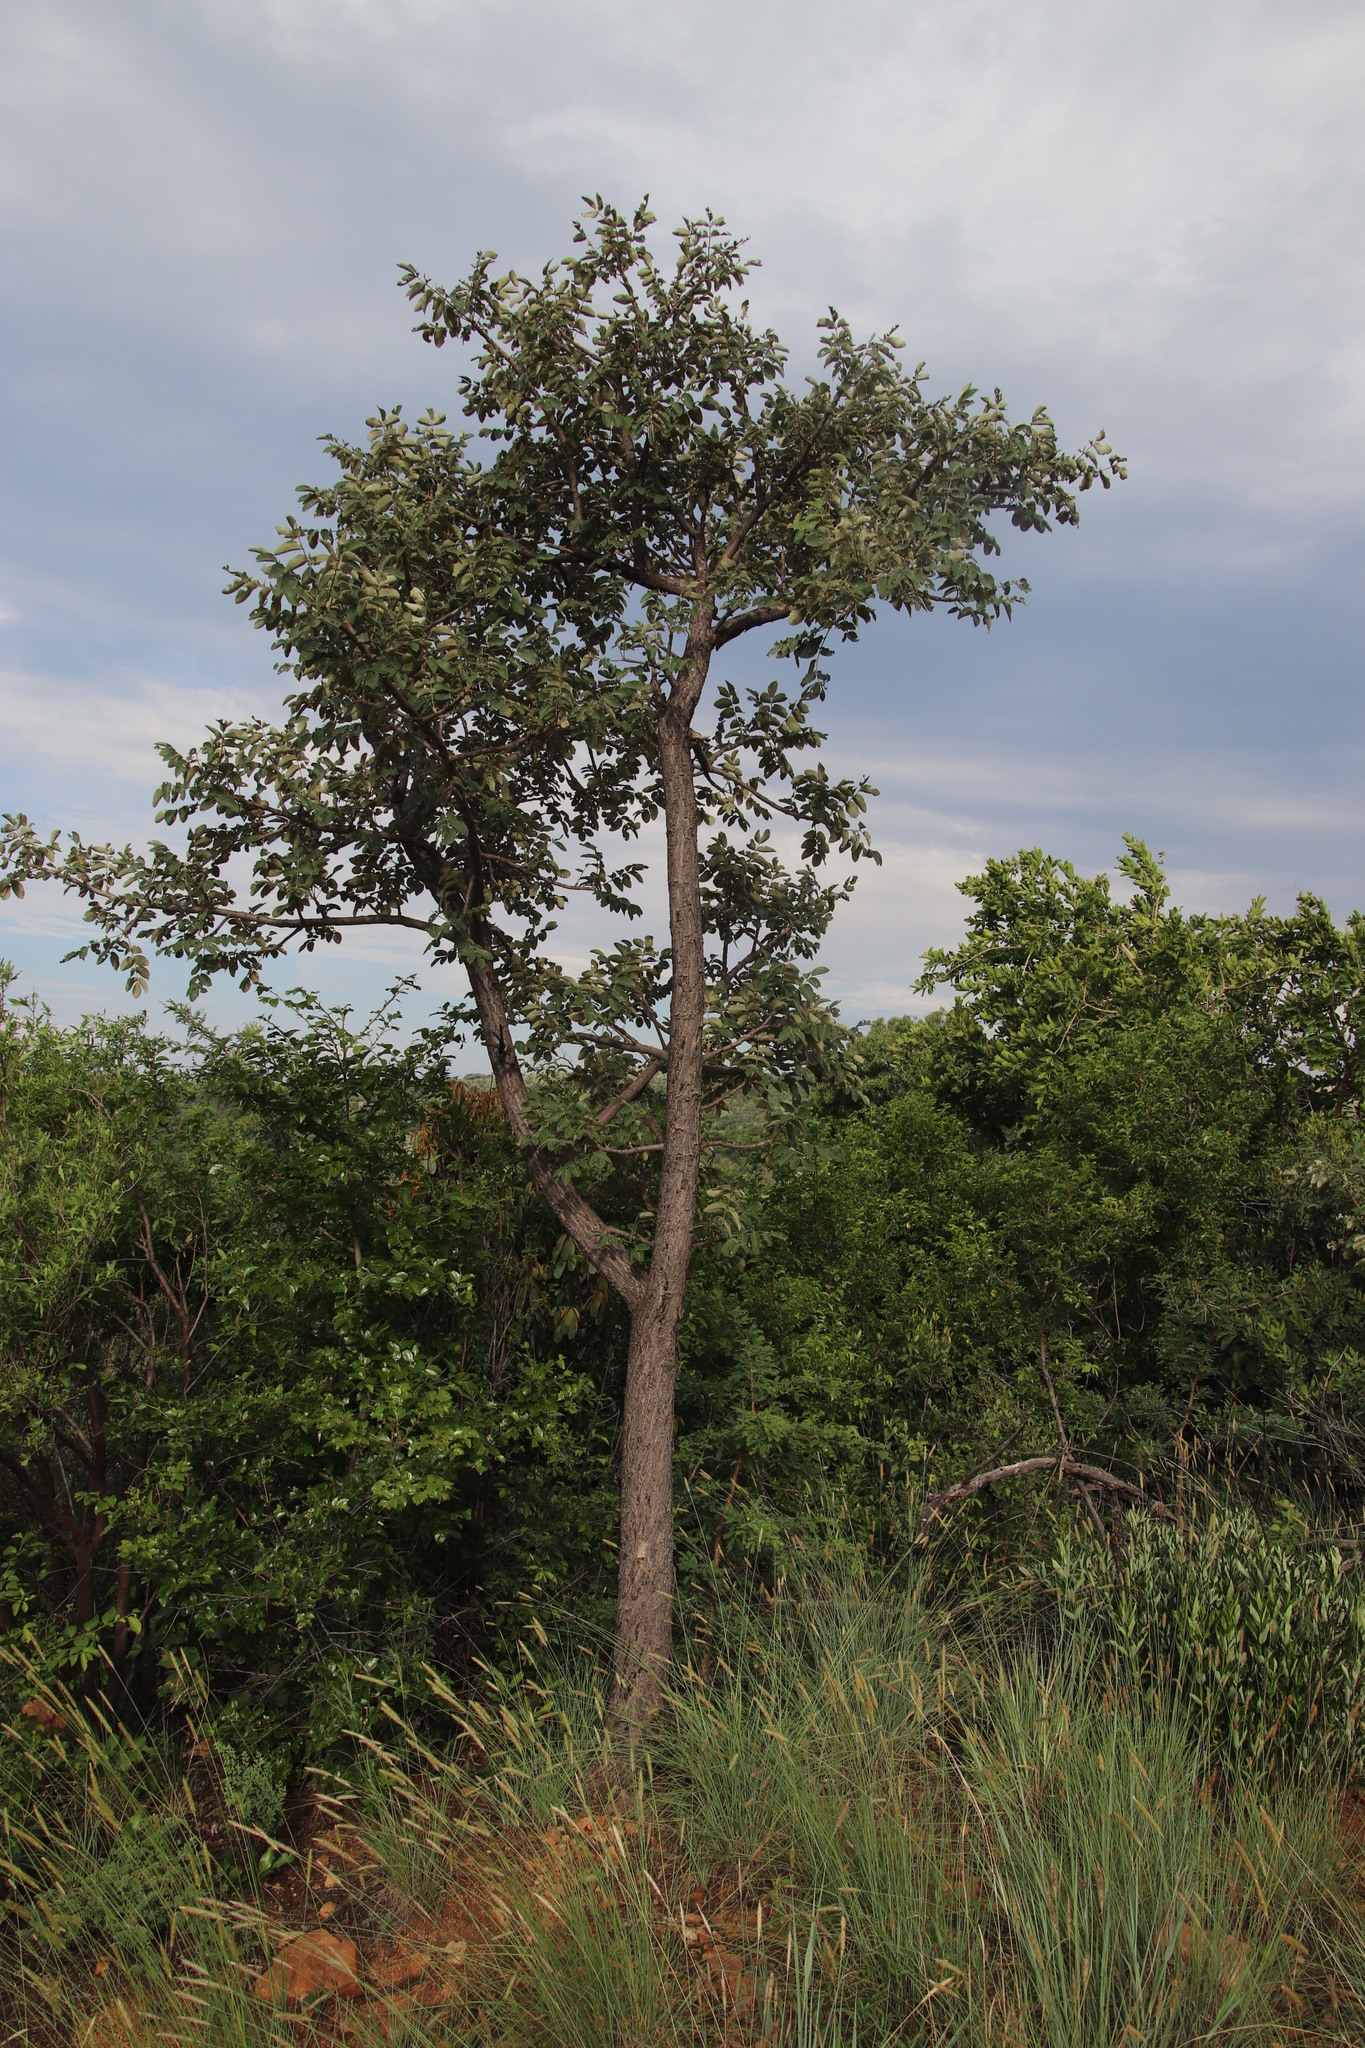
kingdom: Plantae
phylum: Tracheophyta
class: Magnoliopsida
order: Sapindales
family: Anacardiaceae
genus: Lannea
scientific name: Lannea discolor
